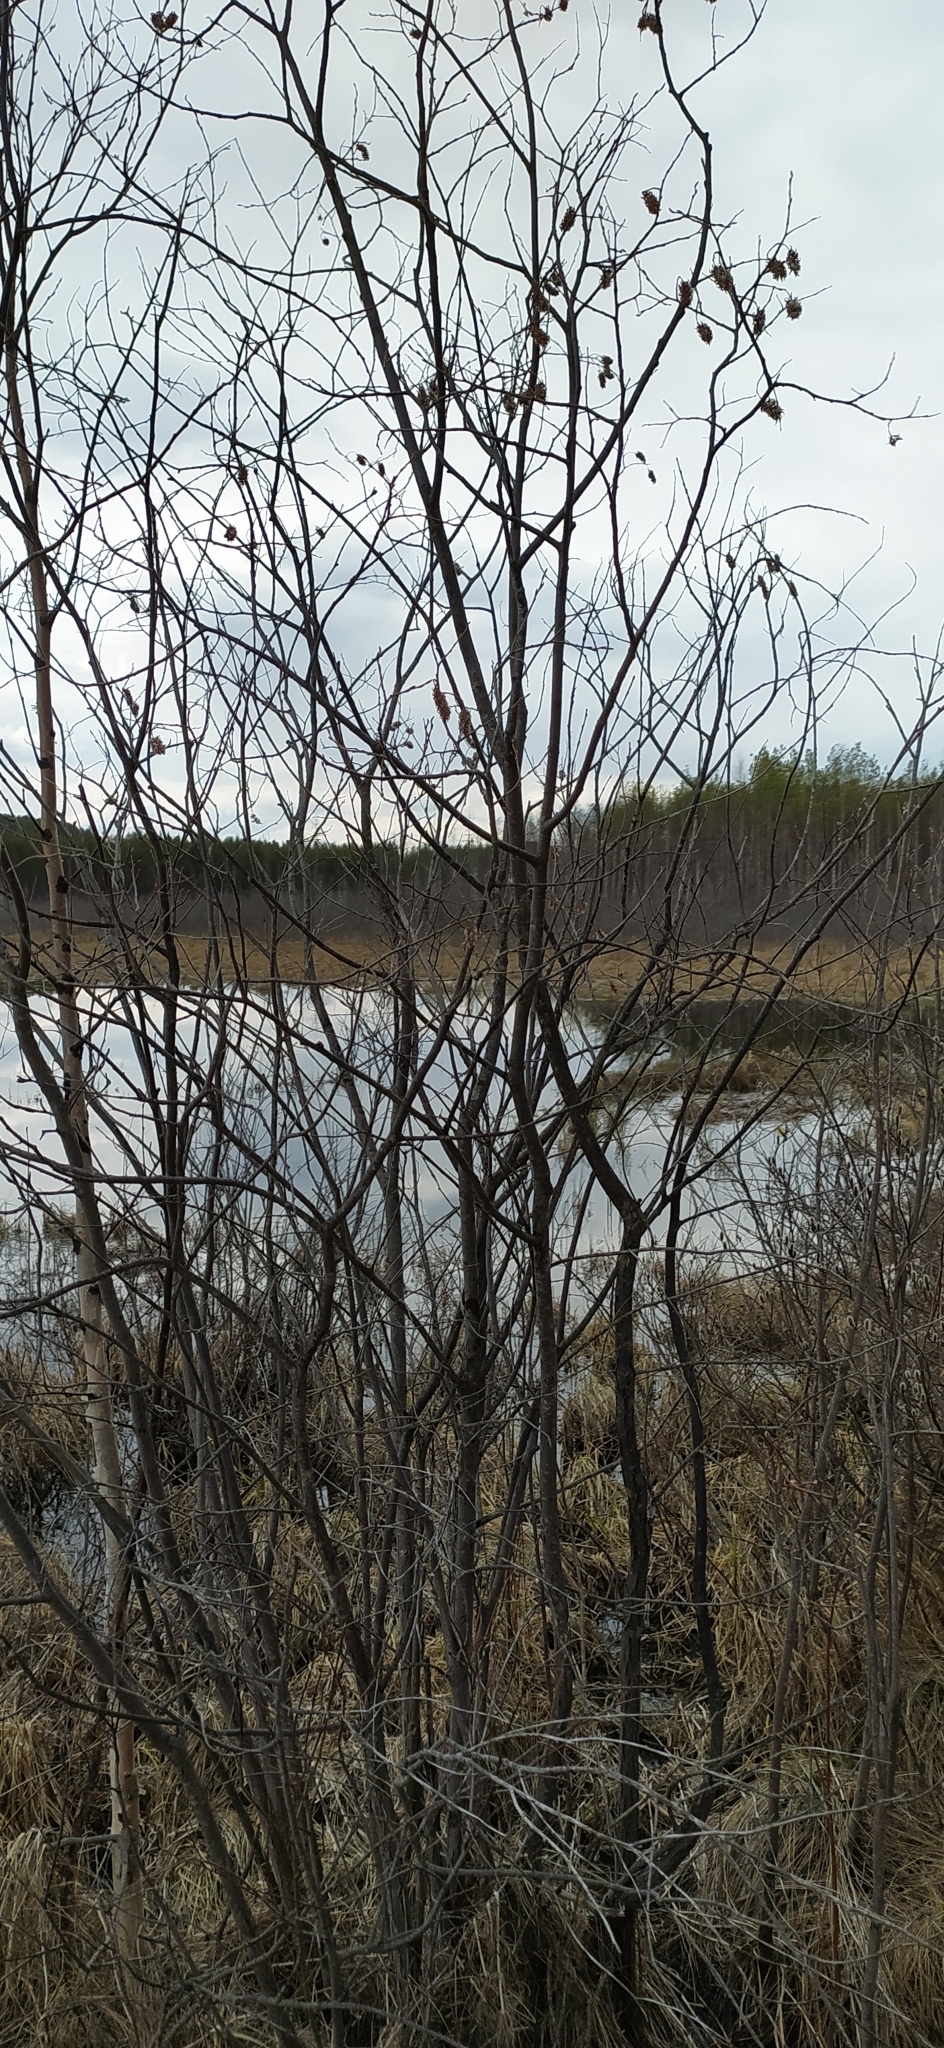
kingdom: Plantae
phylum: Tracheophyta
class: Magnoliopsida
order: Malpighiales
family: Salicaceae
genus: Salix
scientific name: Salix pentandra
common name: Bay willow
